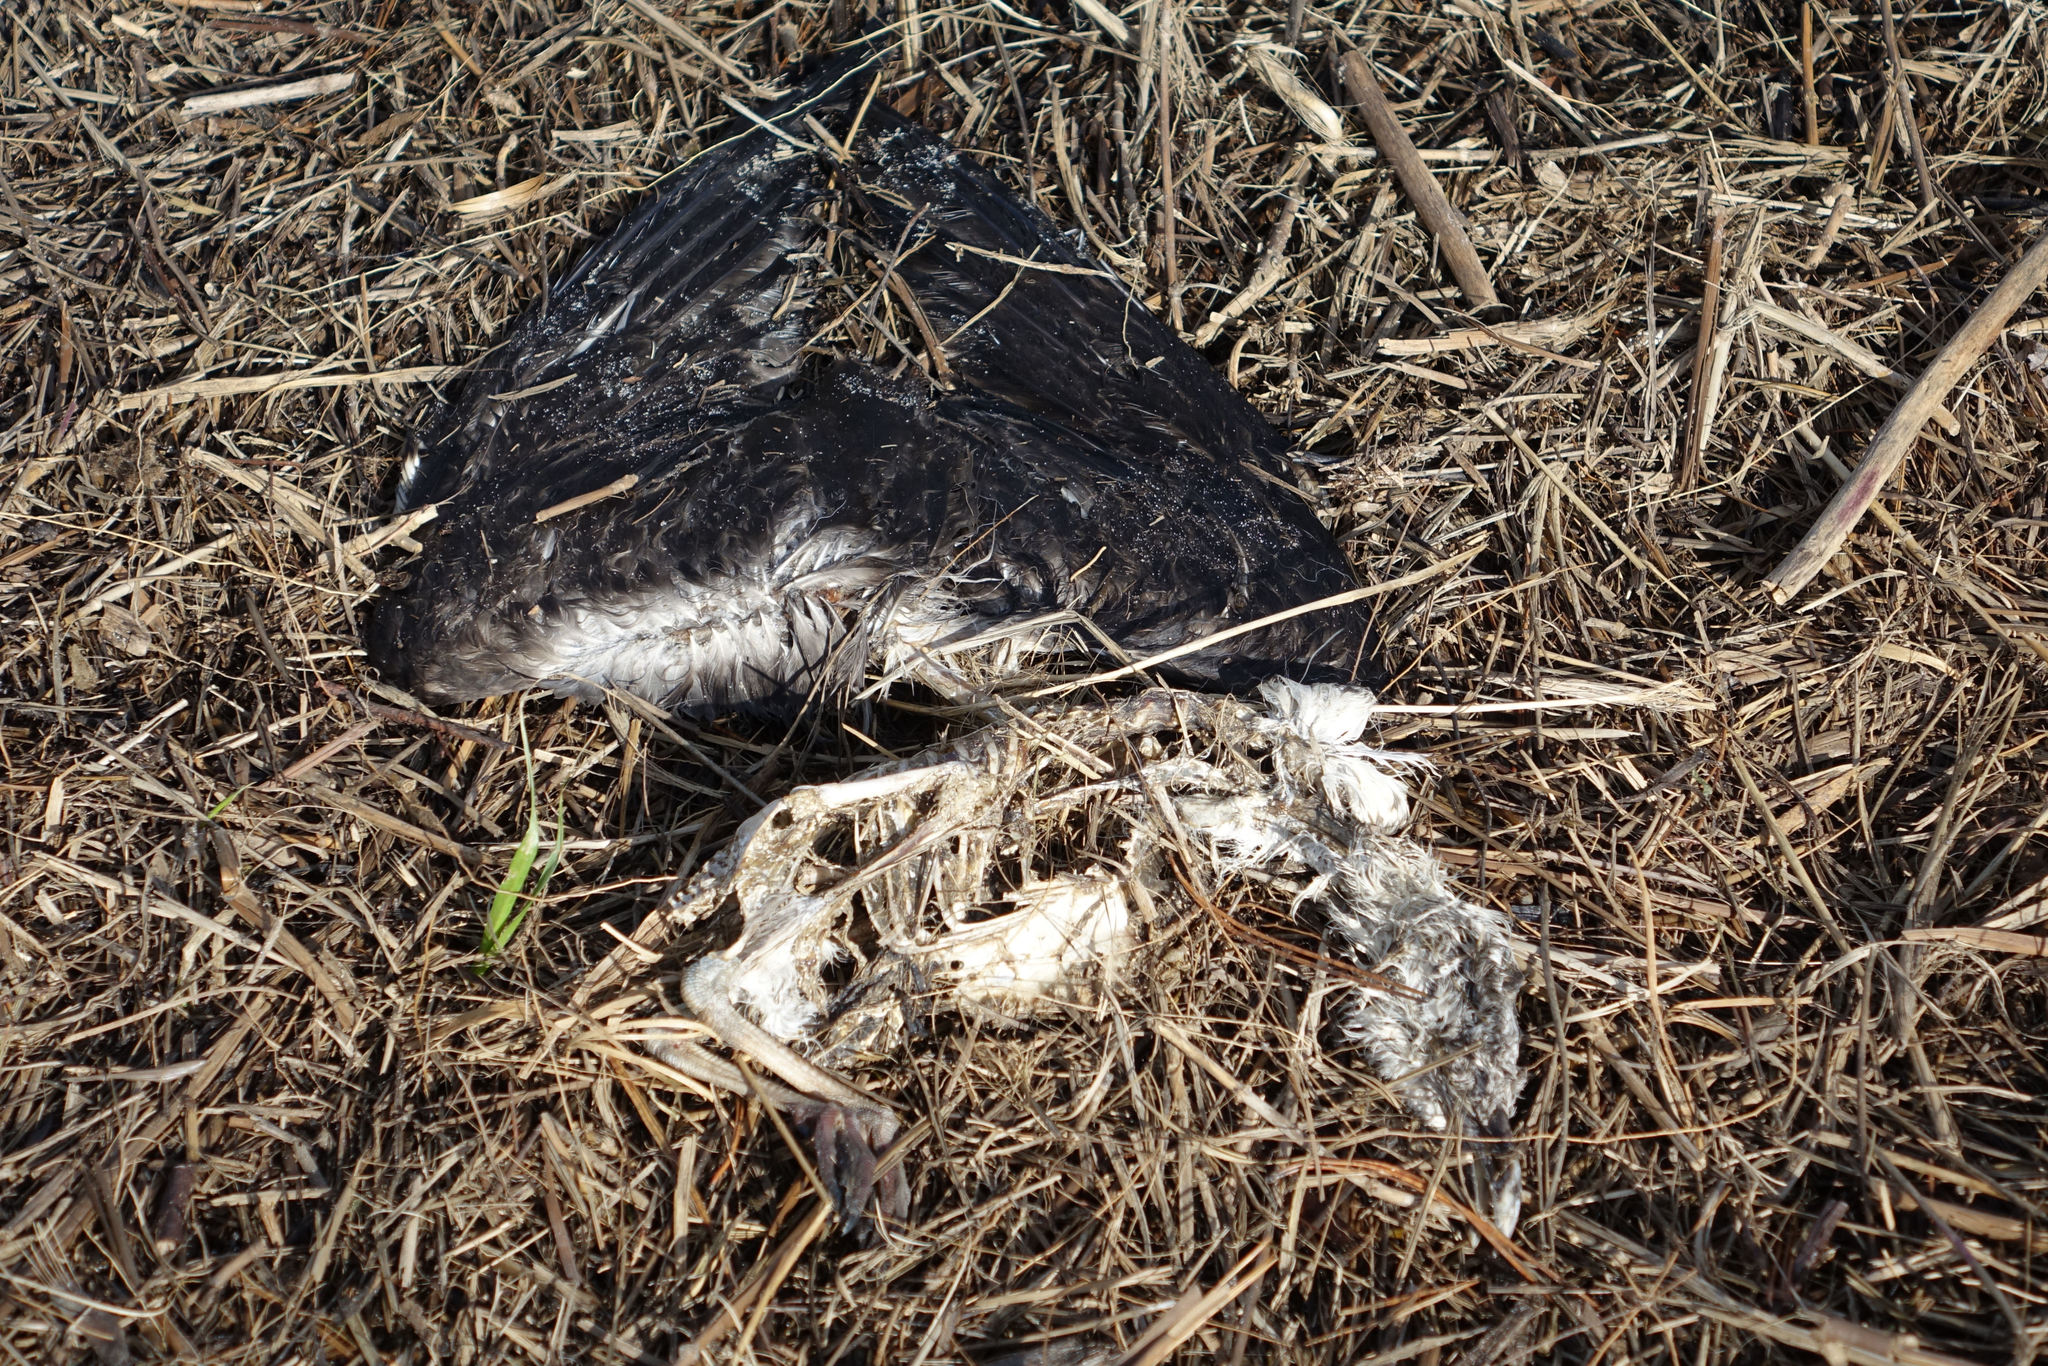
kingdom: Animalia
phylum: Chordata
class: Aves
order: Charadriiformes
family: Laridae
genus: Larus
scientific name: Larus dominicanus
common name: Kelp gull
